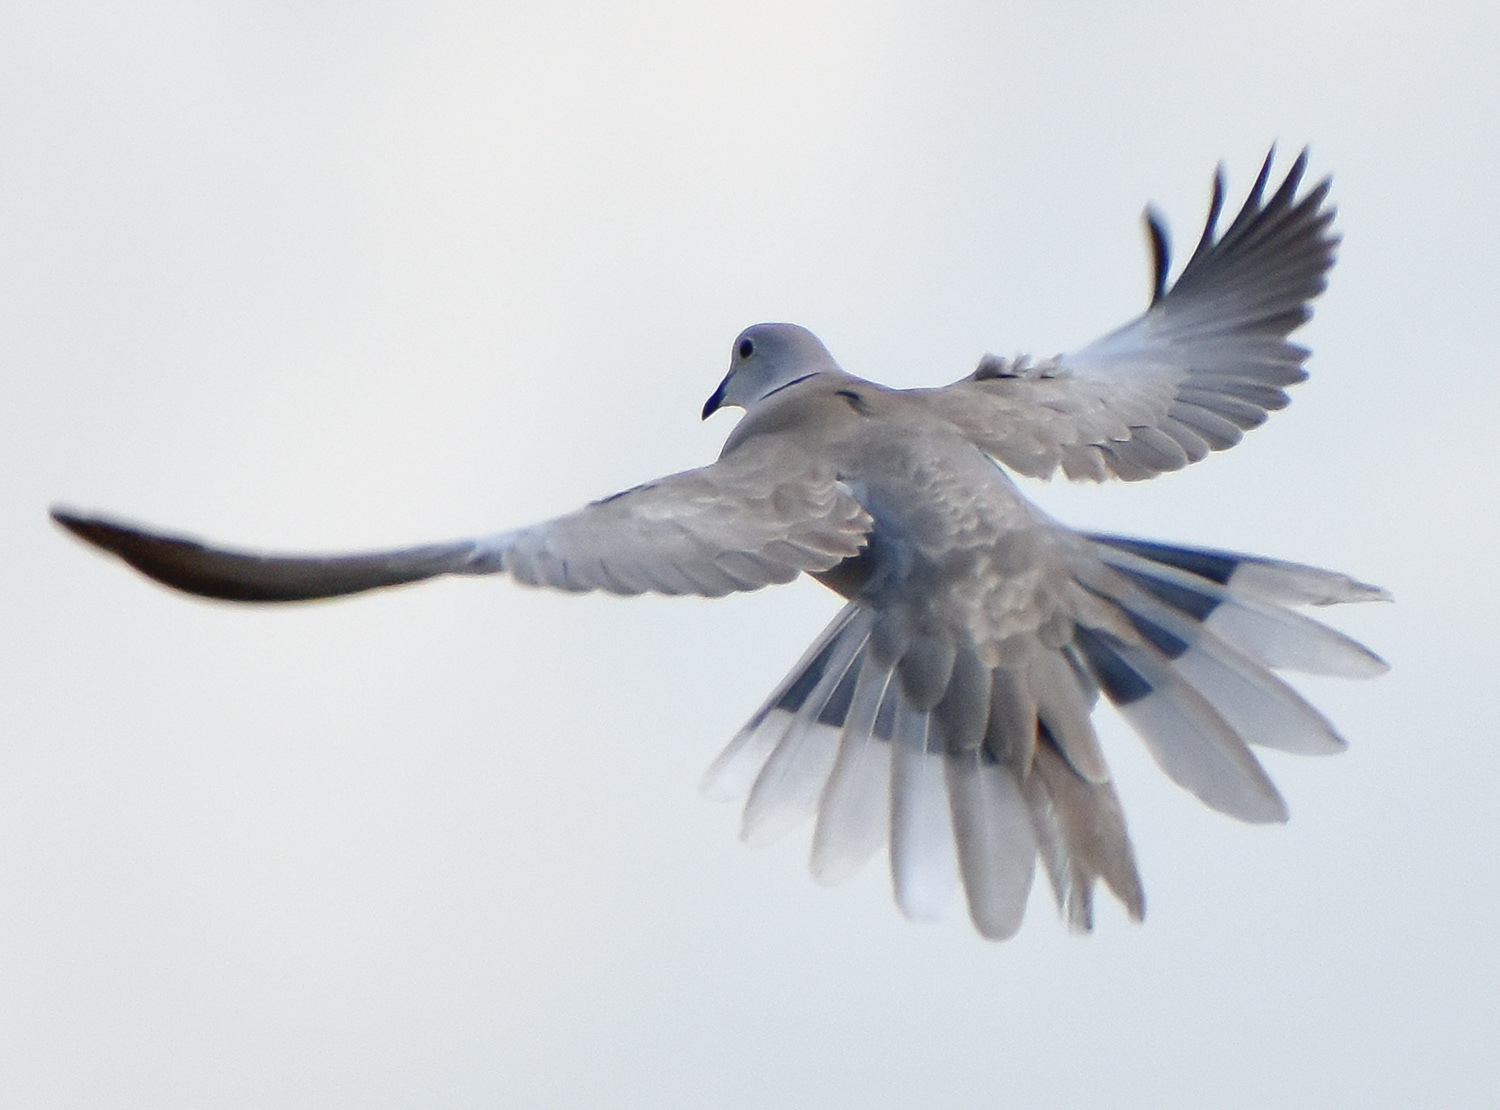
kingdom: Animalia
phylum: Chordata
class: Aves
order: Columbiformes
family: Columbidae
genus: Streptopelia
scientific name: Streptopelia decaocto
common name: Eurasian collared dove
